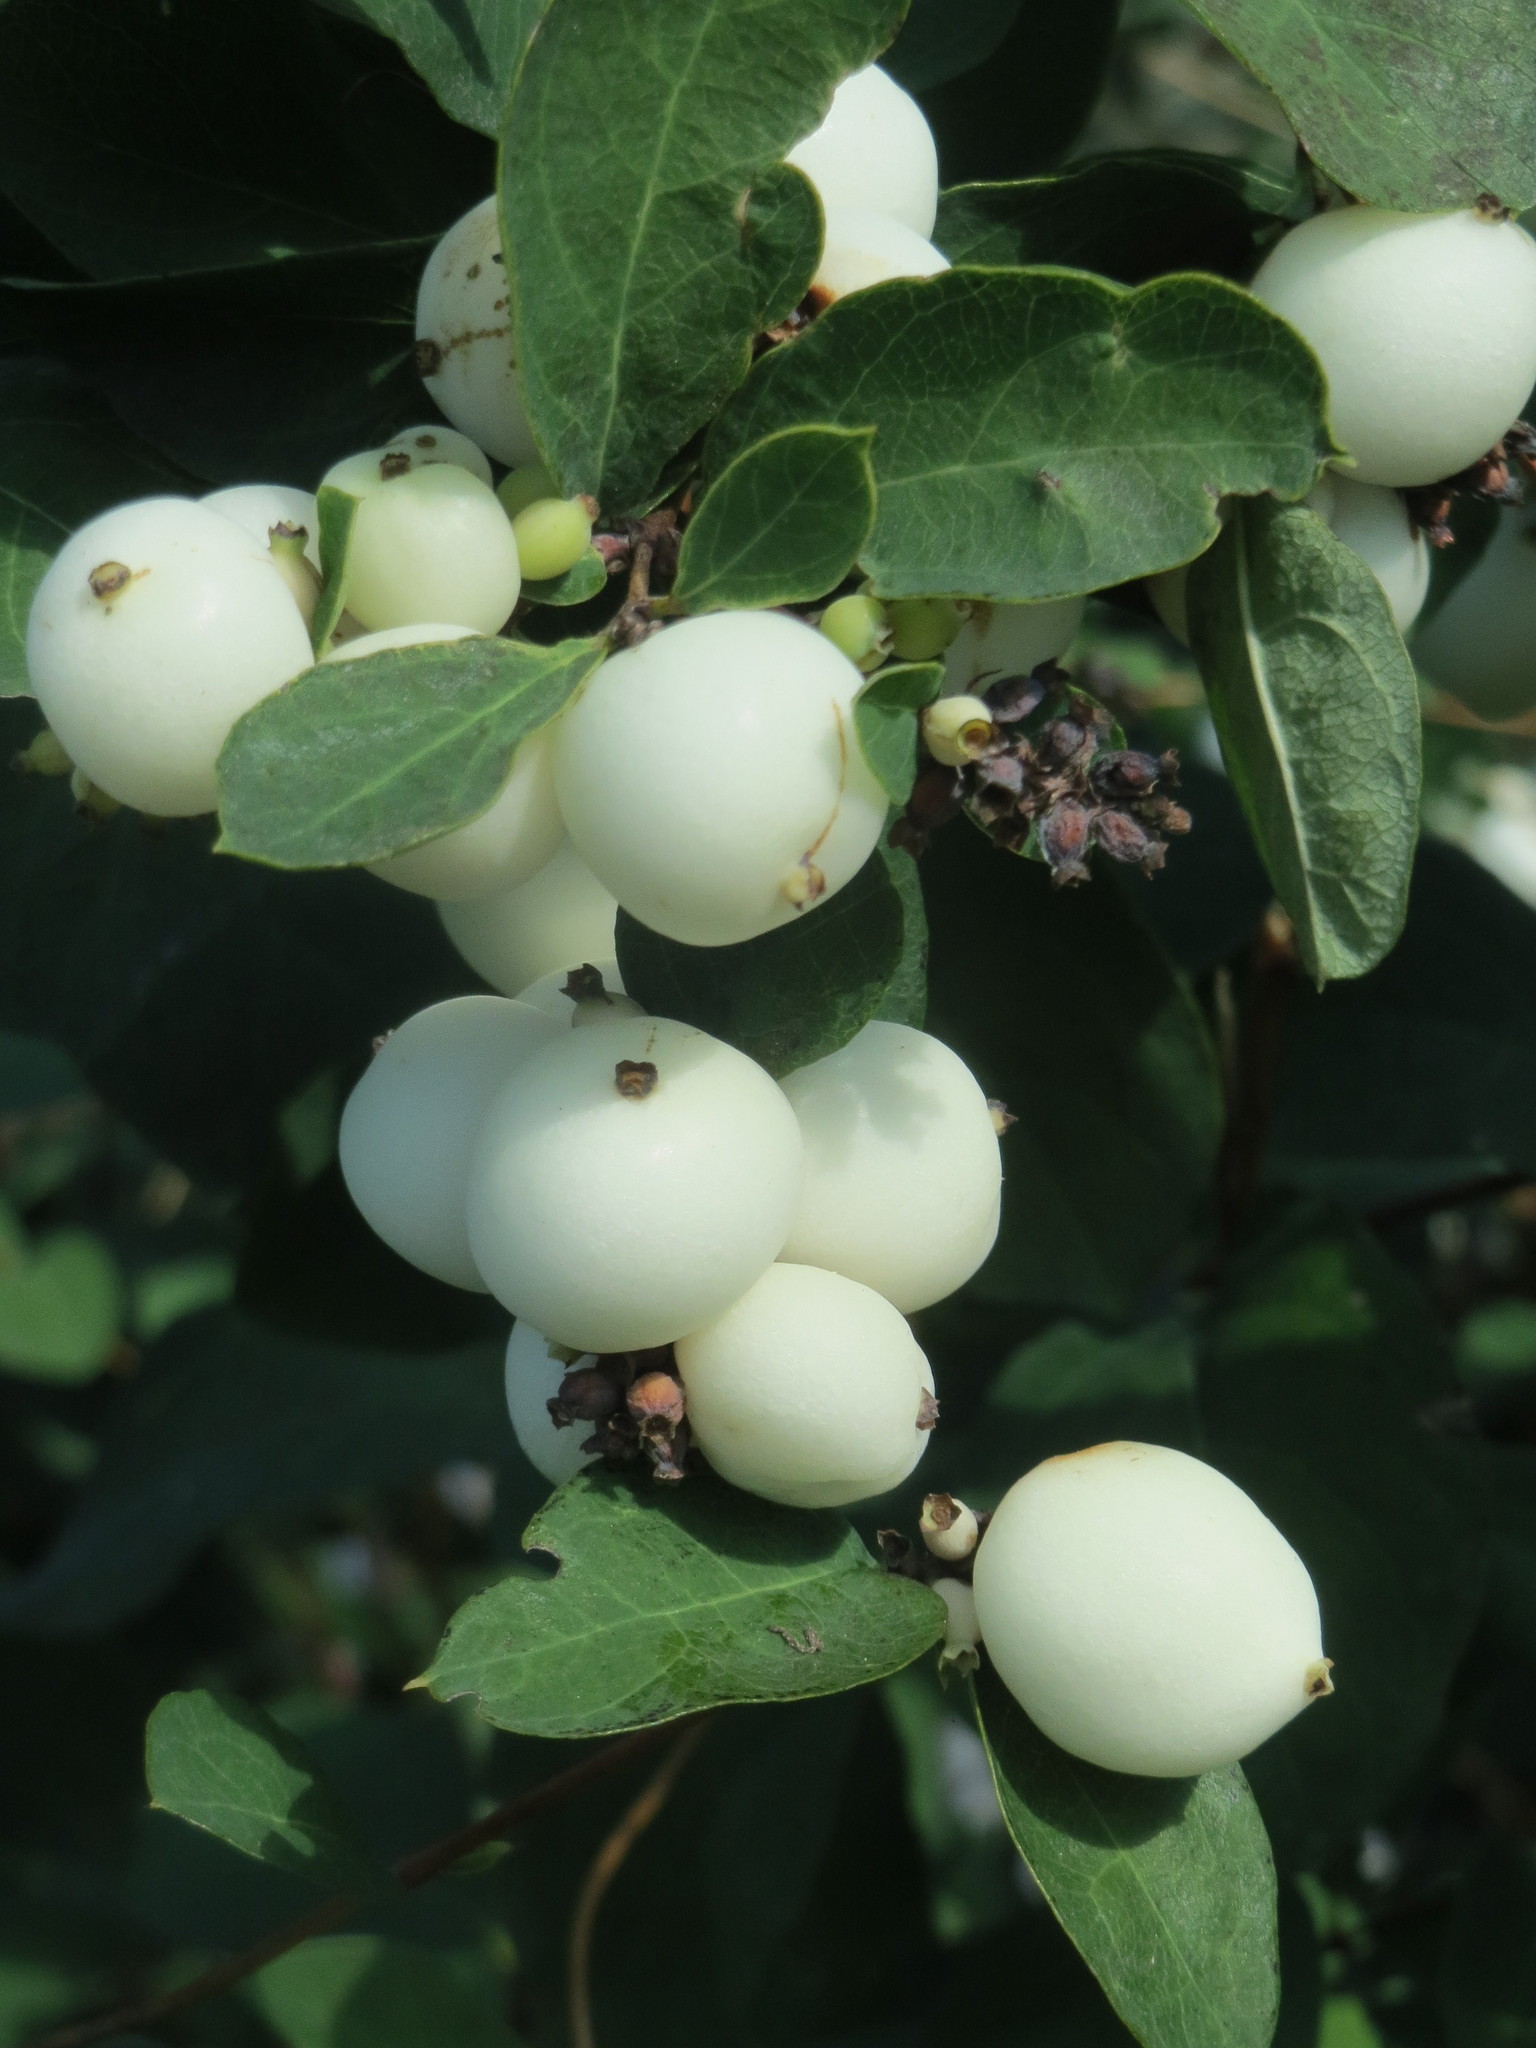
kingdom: Plantae
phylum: Tracheophyta
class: Magnoliopsida
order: Dipsacales
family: Caprifoliaceae
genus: Symphoricarpos
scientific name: Symphoricarpos albus
